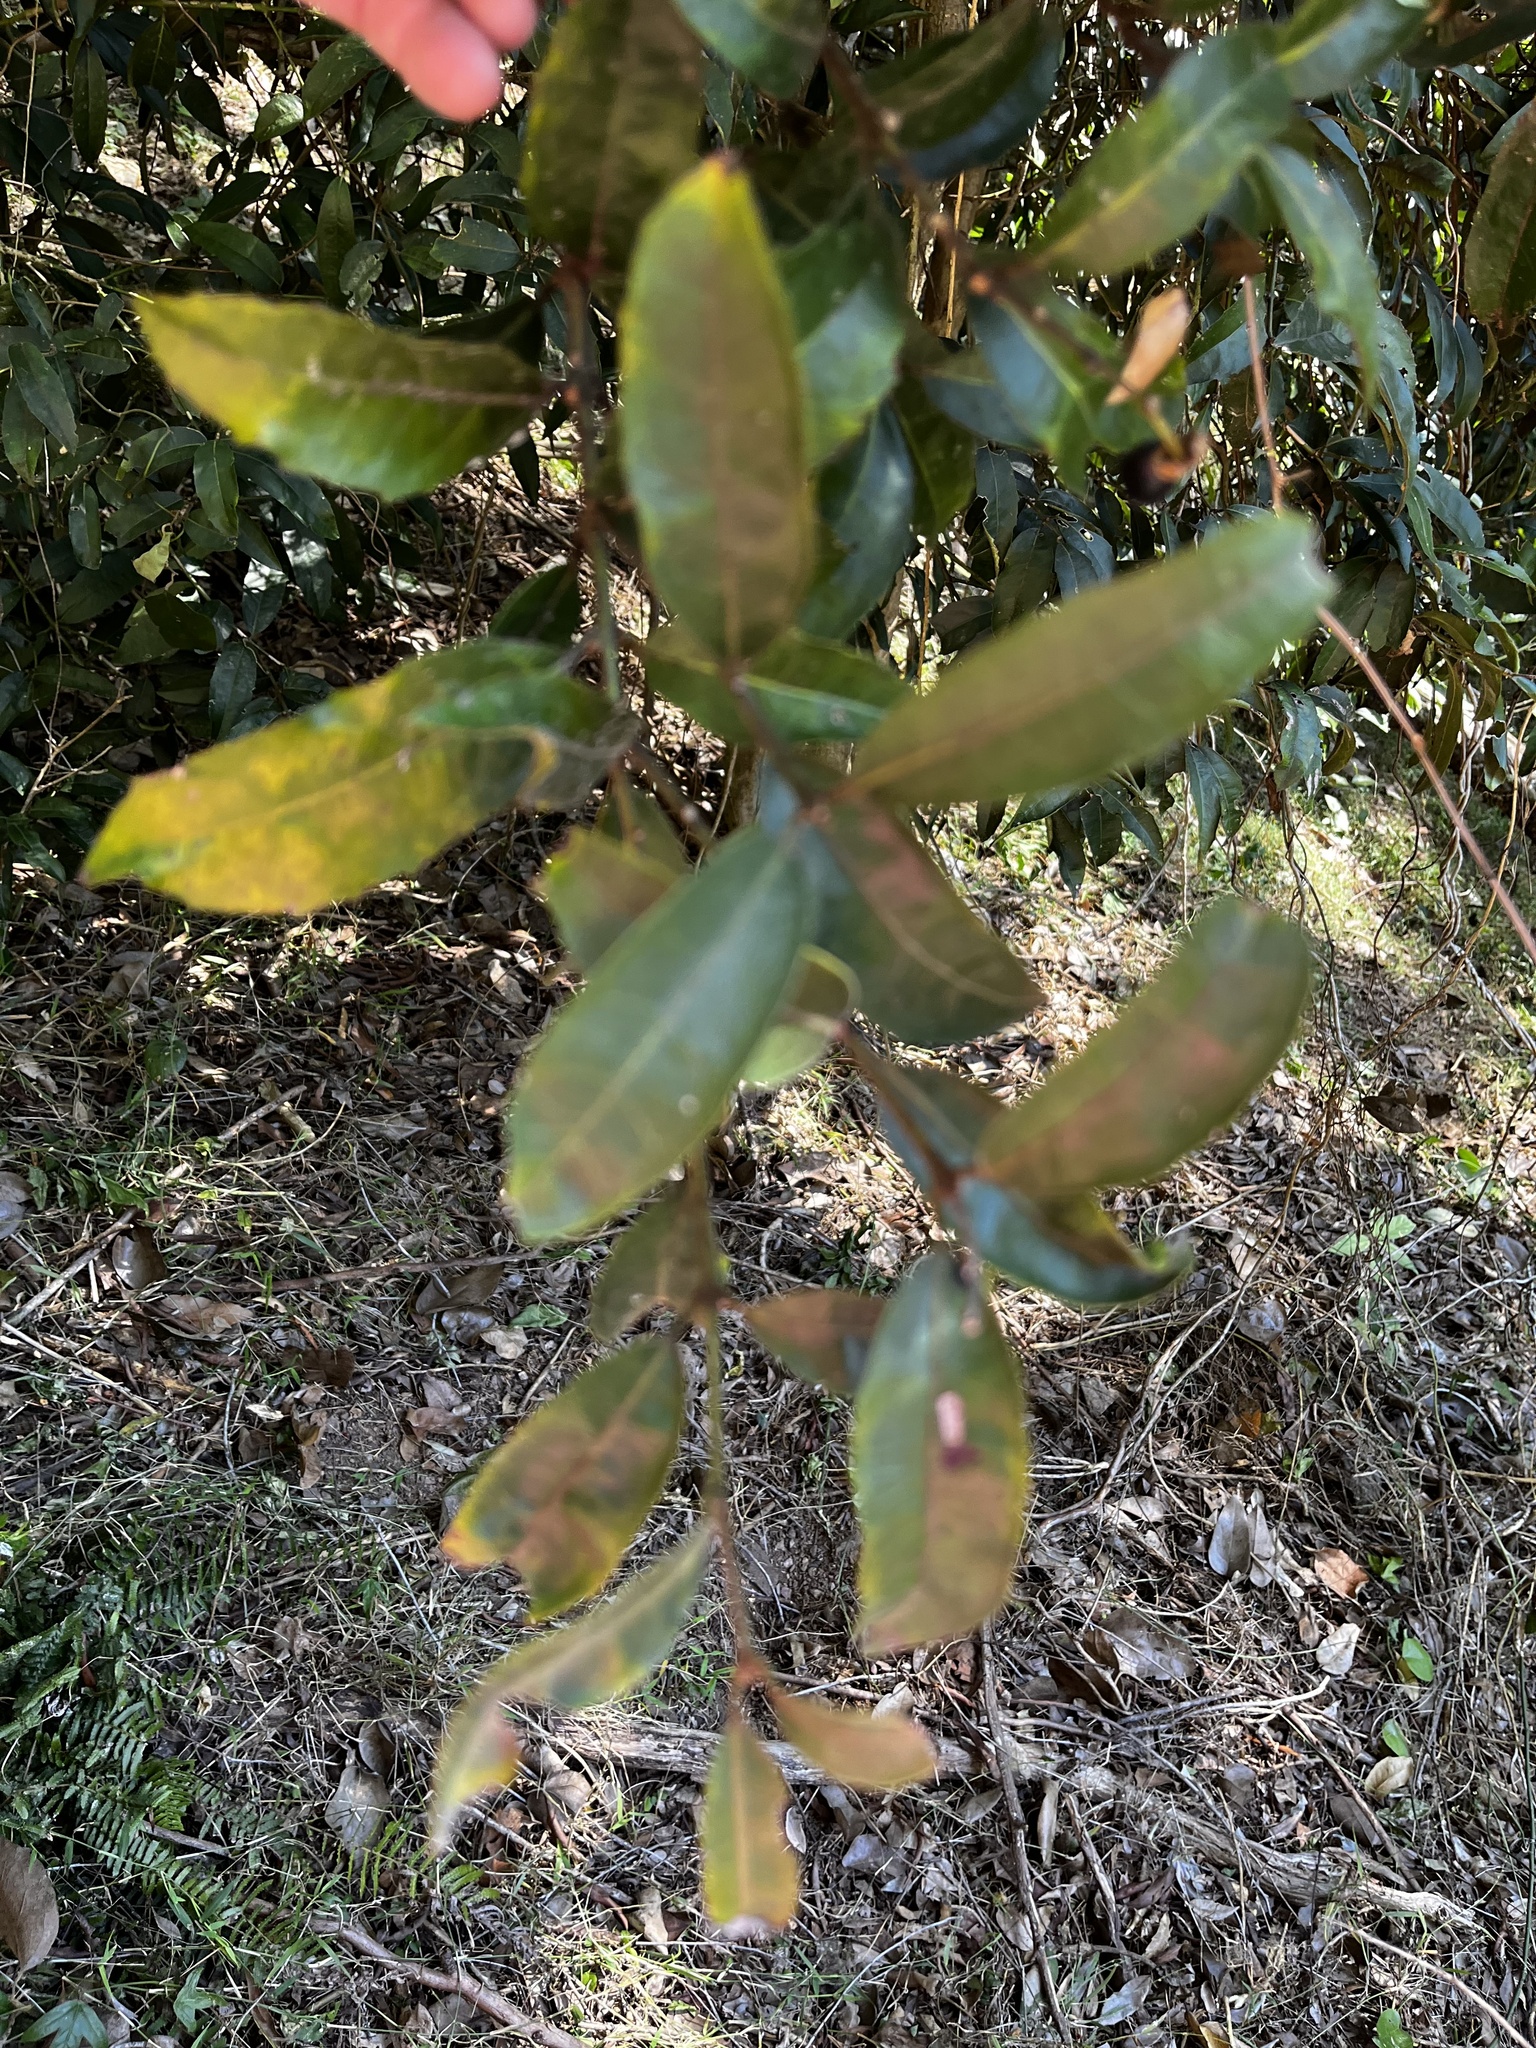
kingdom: Plantae
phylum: Tracheophyta
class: Magnoliopsida
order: Laurales
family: Monimiaceae
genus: Wilkiea
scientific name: Wilkiea hugeliana
